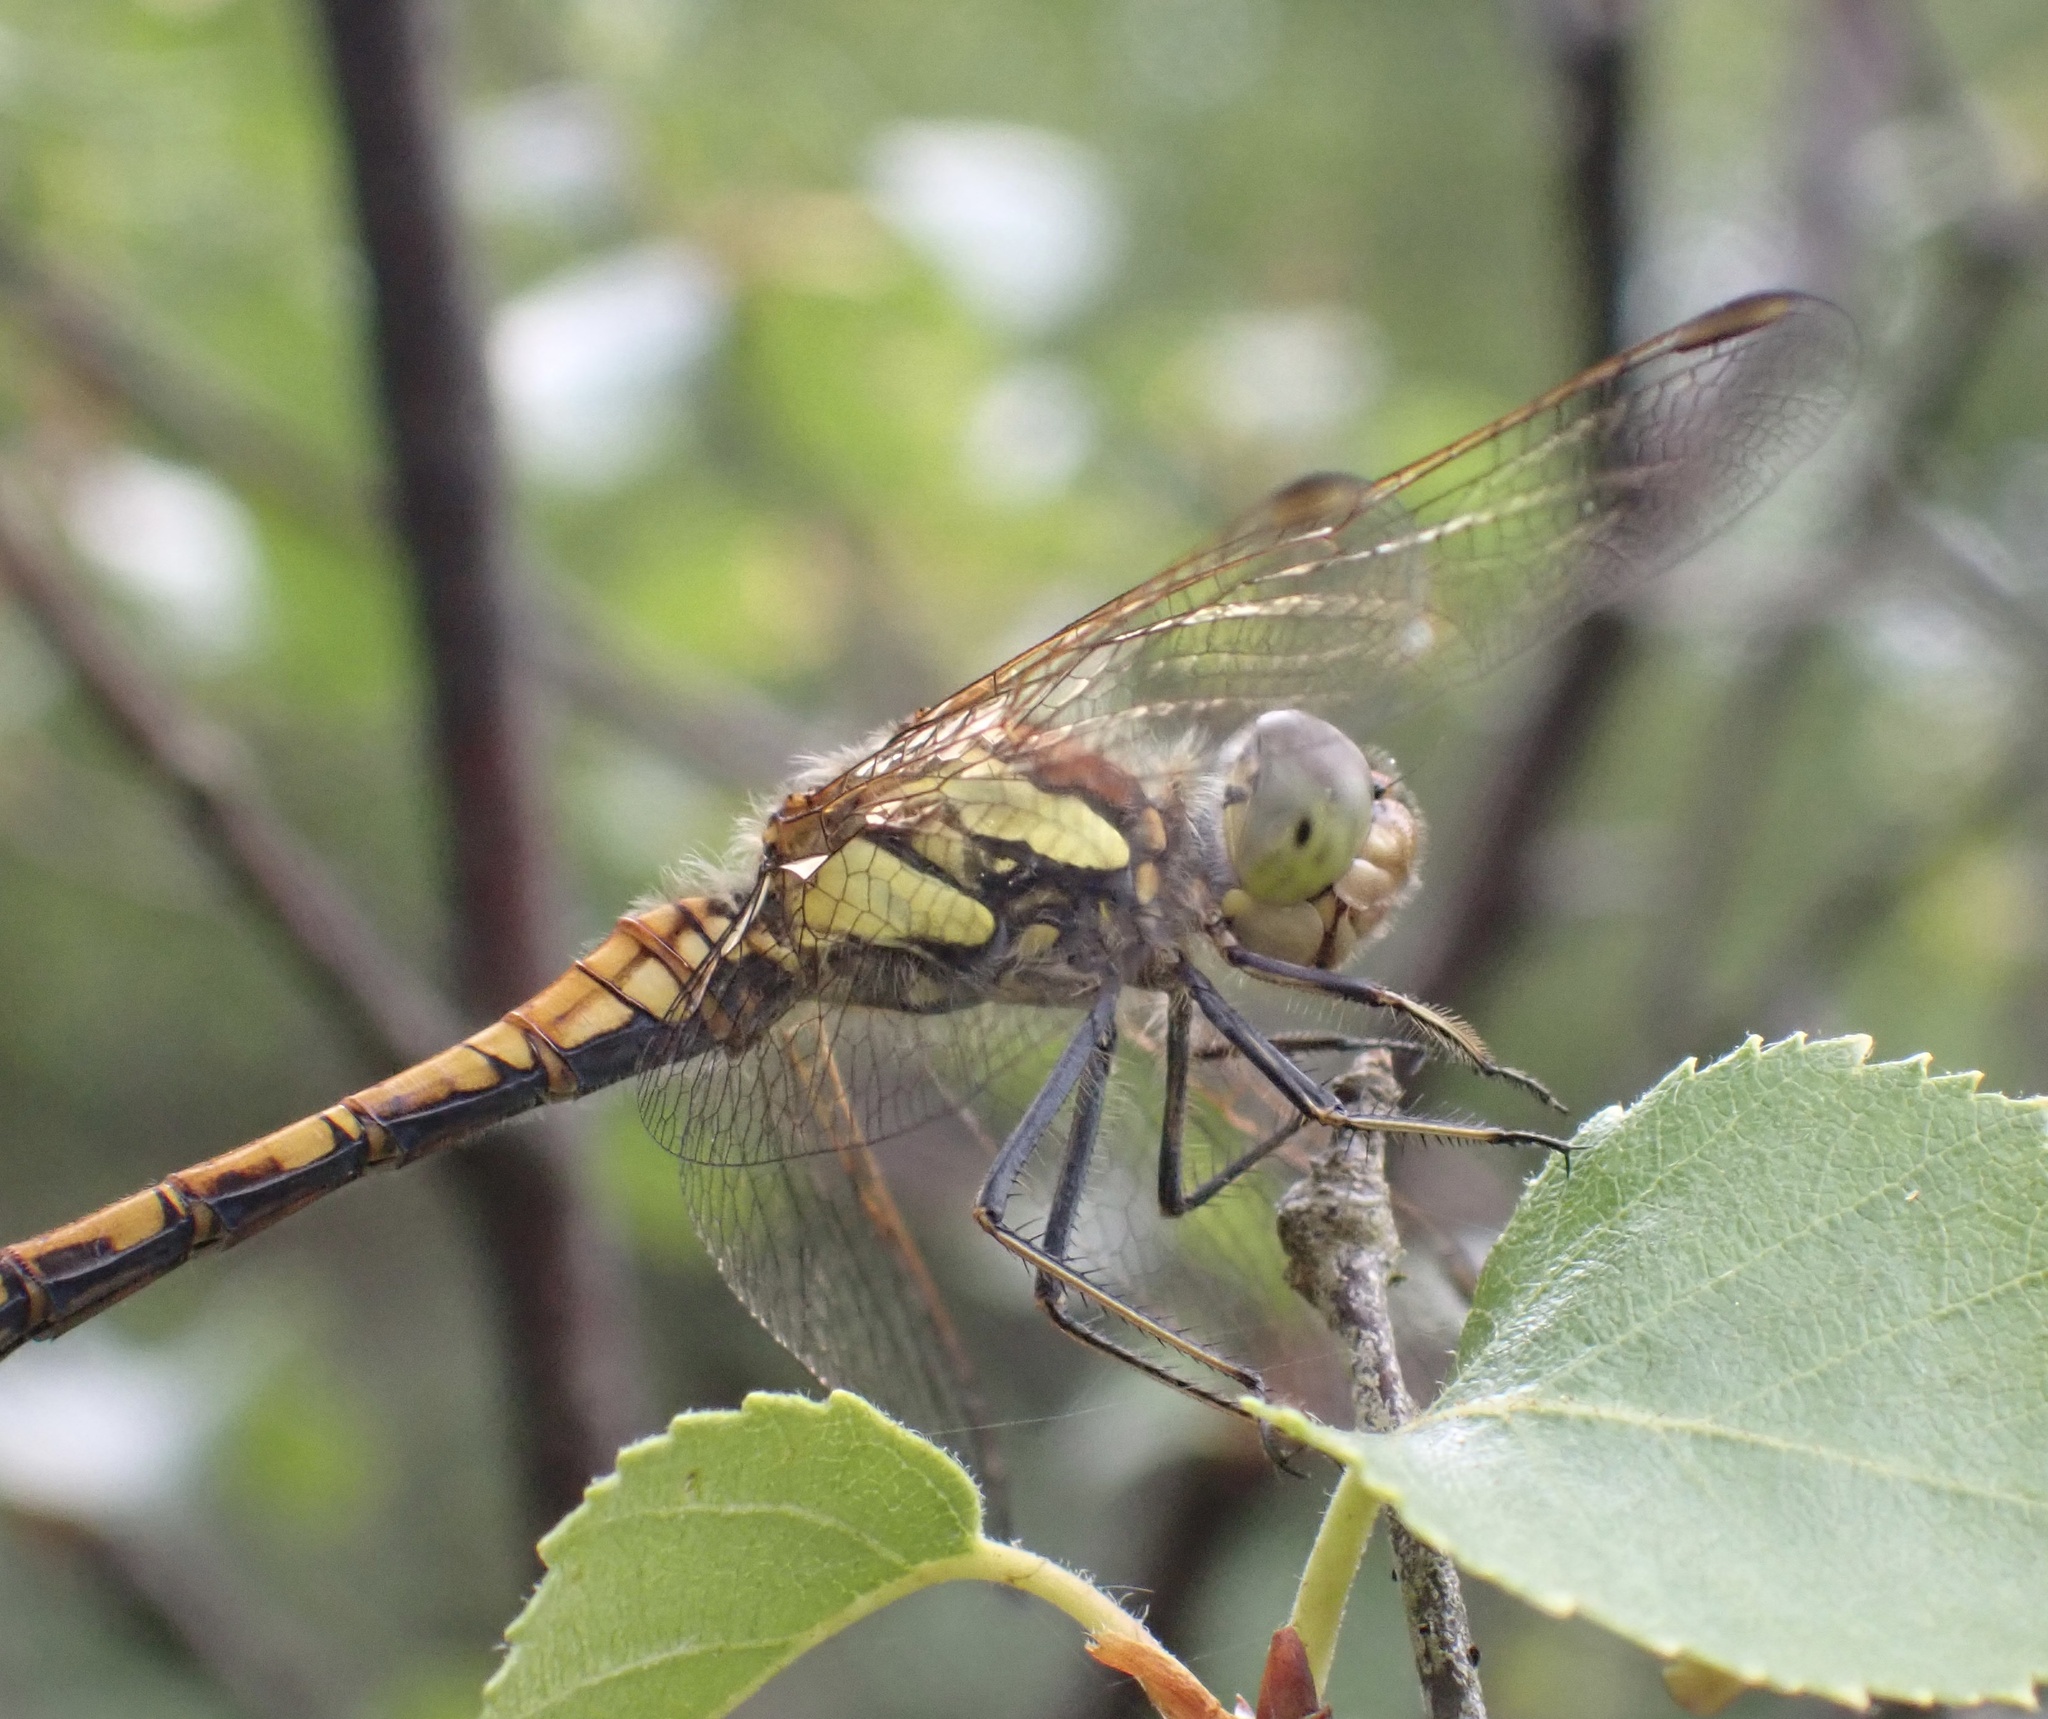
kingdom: Animalia
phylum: Arthropoda
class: Insecta
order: Odonata
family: Libellulidae
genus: Sympetrum
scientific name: Sympetrum striolatum
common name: Common darter
